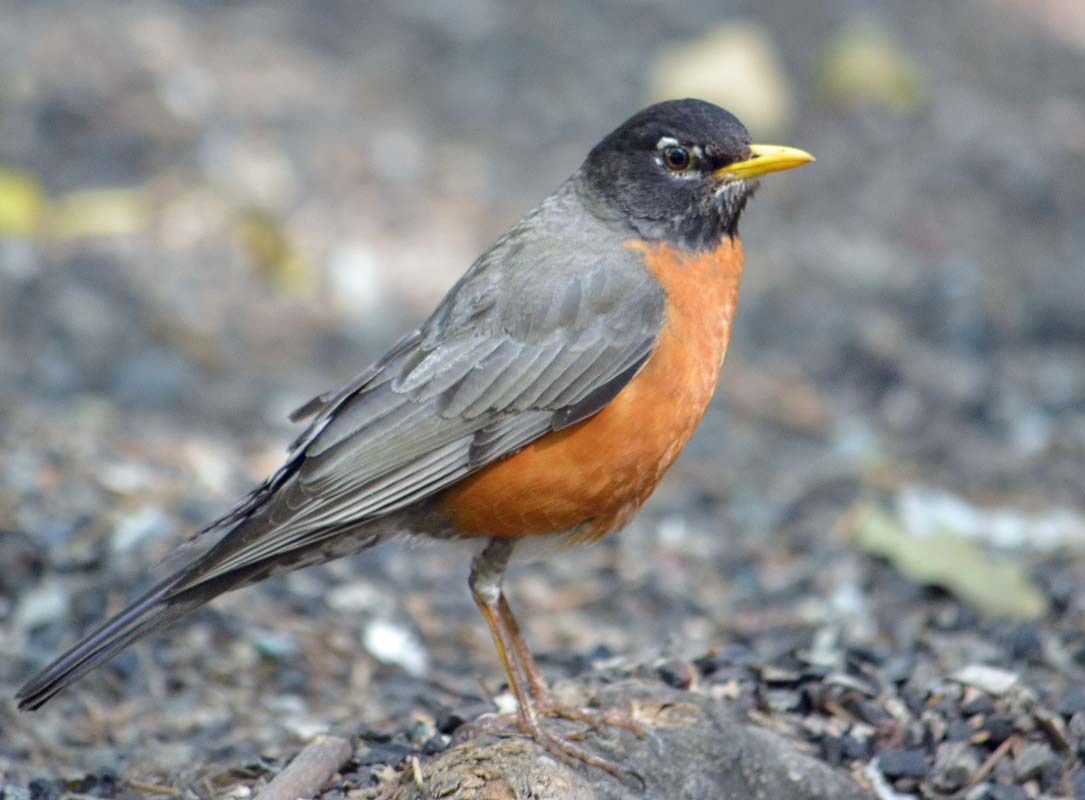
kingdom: Animalia
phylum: Chordata
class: Aves
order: Passeriformes
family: Turdidae
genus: Turdus
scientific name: Turdus migratorius
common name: American robin
